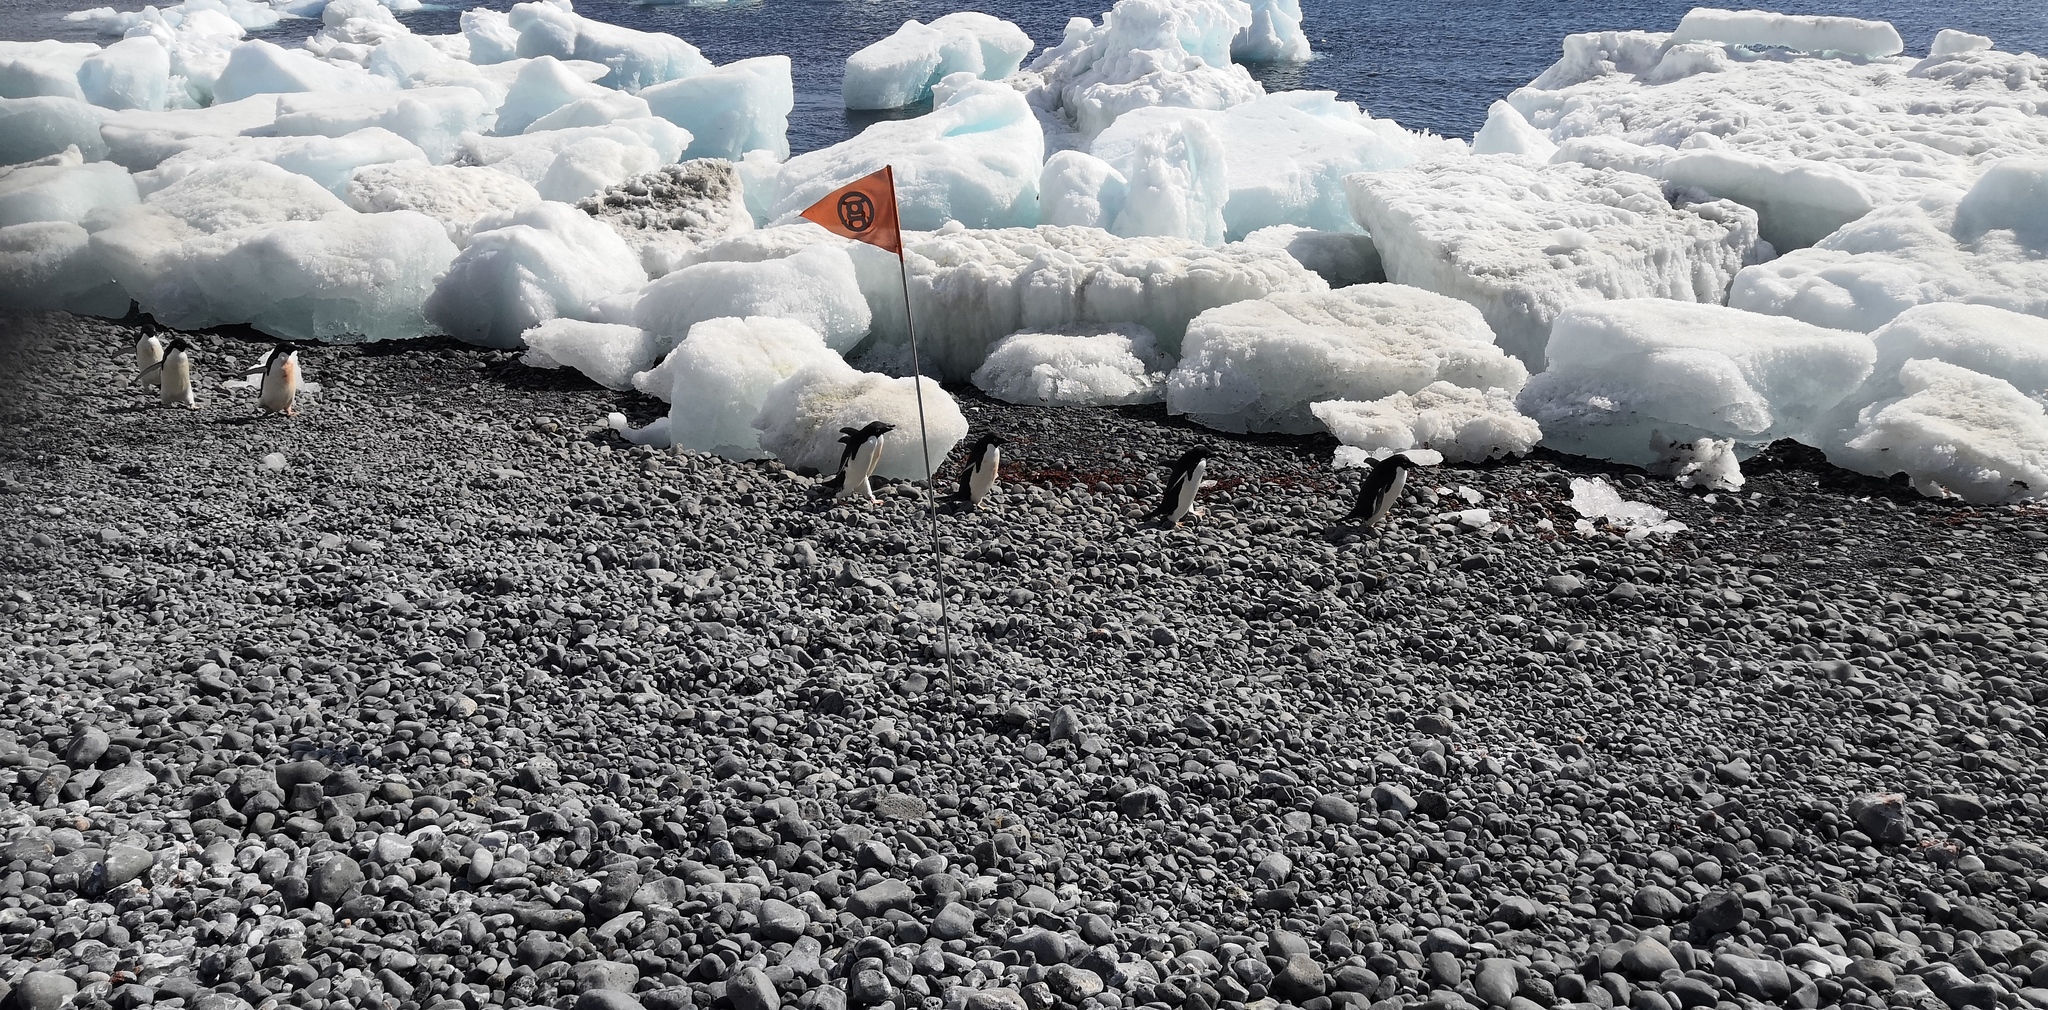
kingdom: Animalia
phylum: Chordata
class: Aves
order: Sphenisciformes
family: Spheniscidae
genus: Pygoscelis
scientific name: Pygoscelis adeliae
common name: Adelie penguin
